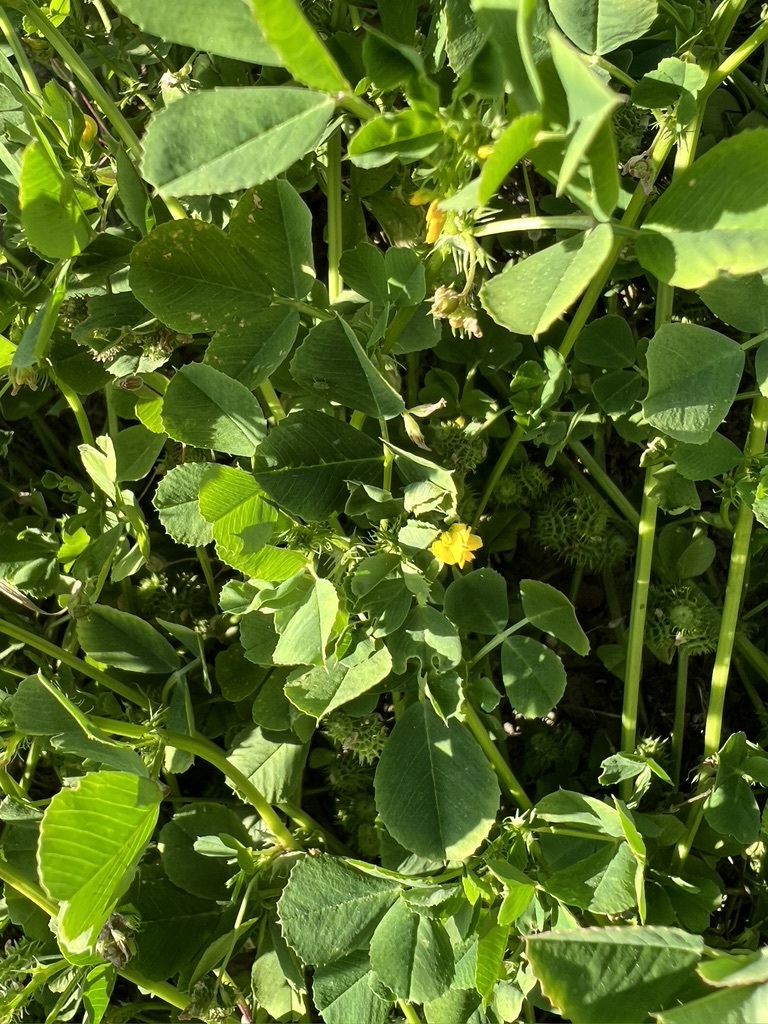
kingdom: Plantae
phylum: Tracheophyta
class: Magnoliopsida
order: Fabales
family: Fabaceae
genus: Medicago
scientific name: Medicago polymorpha
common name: Burclover
